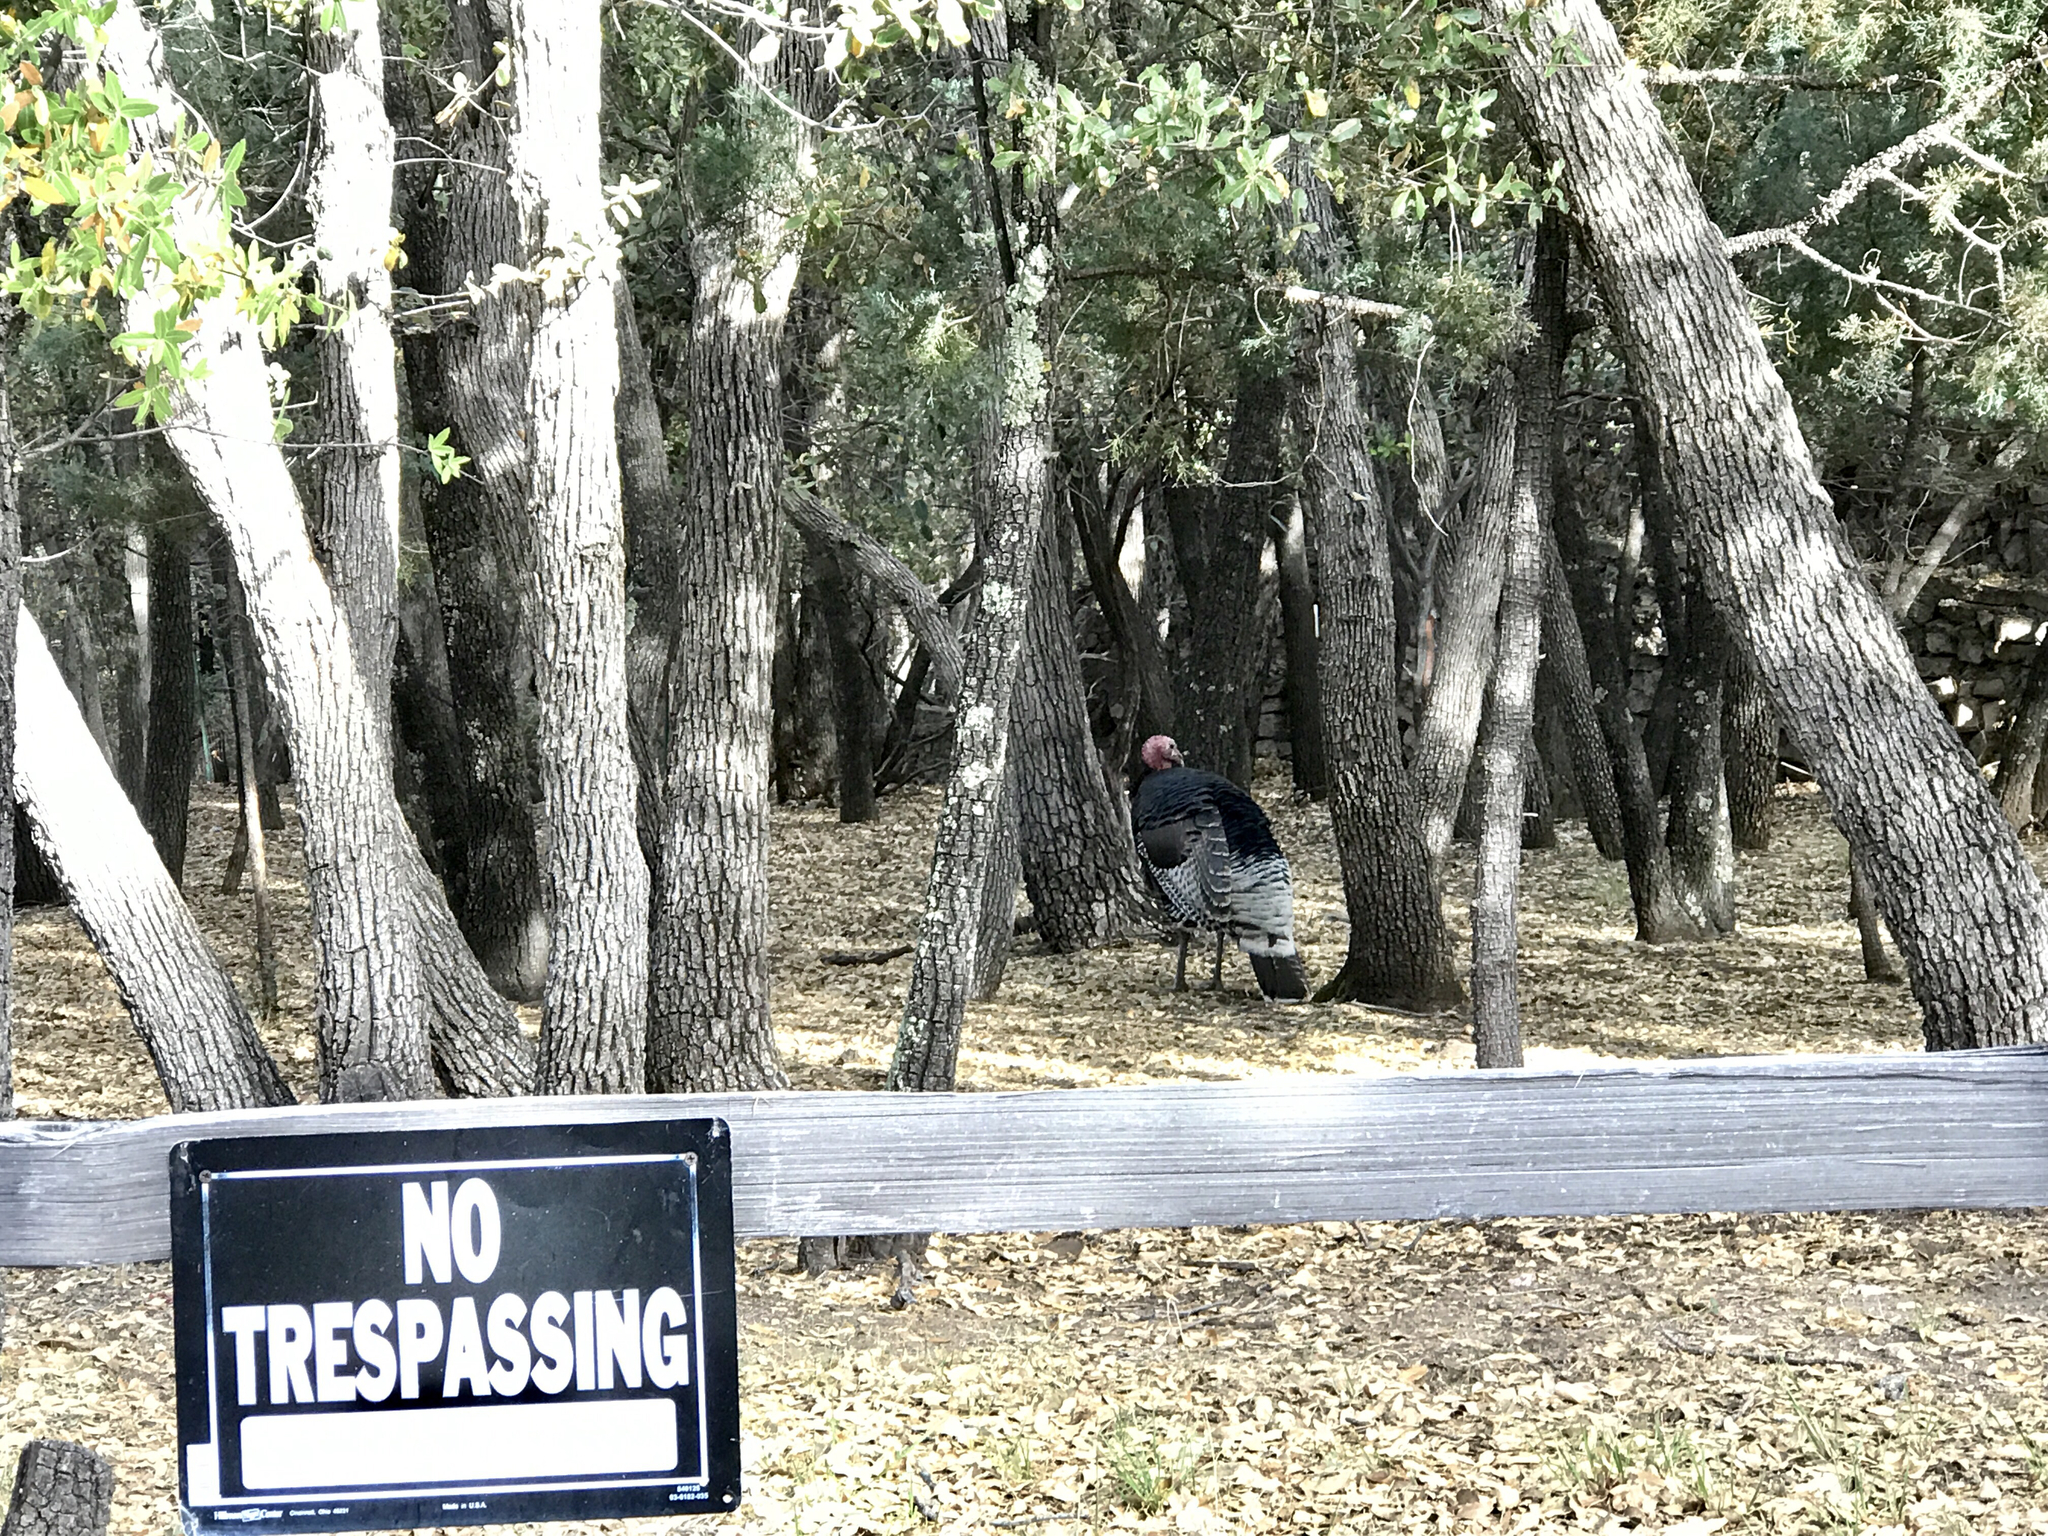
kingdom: Animalia
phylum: Chordata
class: Aves
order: Galliformes
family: Phasianidae
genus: Meleagris
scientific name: Meleagris gallopavo
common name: Wild turkey
